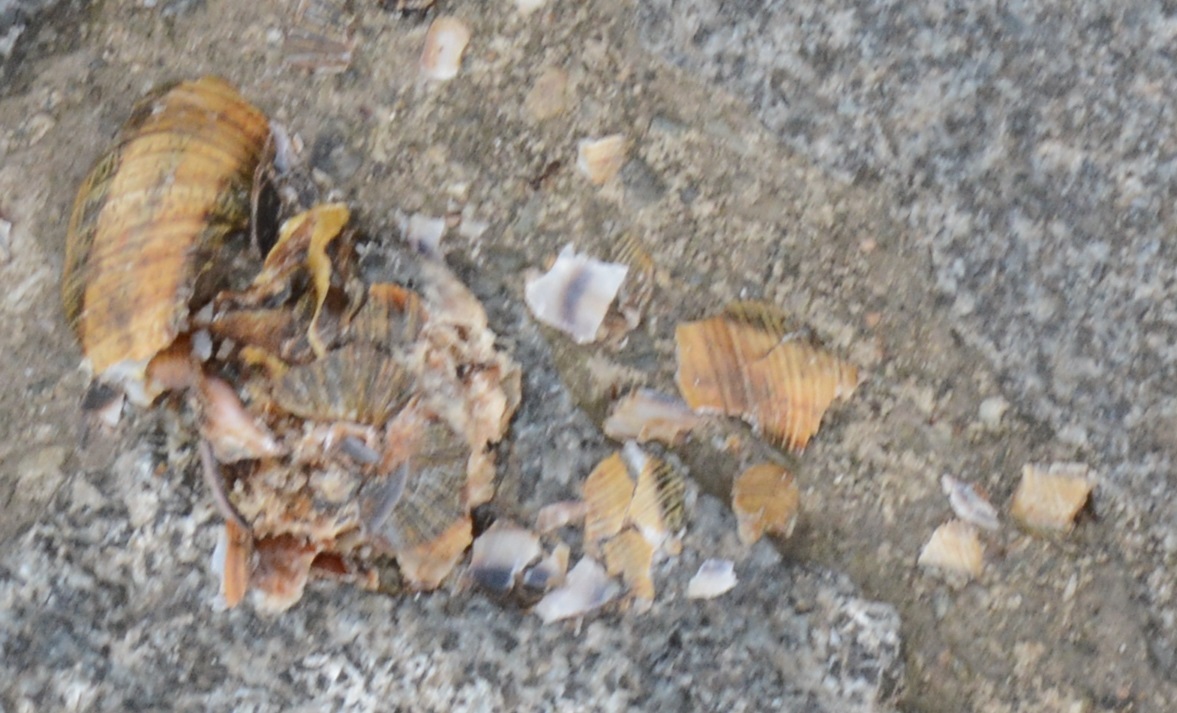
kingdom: Animalia
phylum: Mollusca
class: Gastropoda
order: Stylommatophora
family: Helicidae
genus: Caucasotachea
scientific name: Caucasotachea atrolabiata
